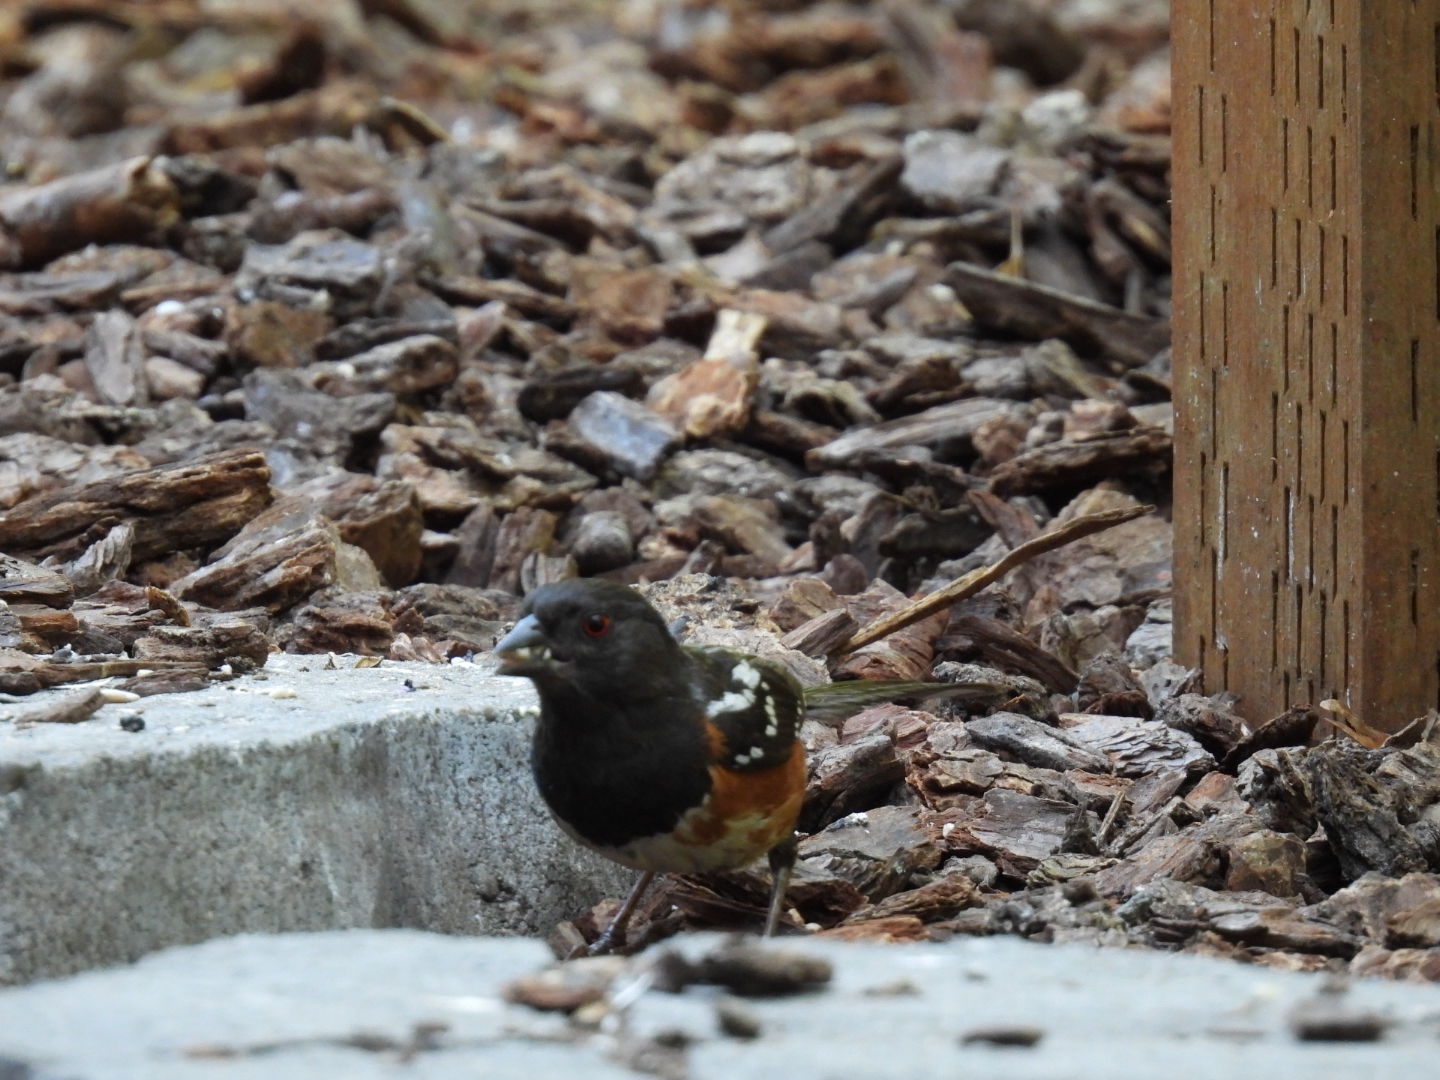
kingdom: Animalia
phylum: Chordata
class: Aves
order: Passeriformes
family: Passerellidae
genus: Pipilo
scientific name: Pipilo maculatus
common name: Spotted towhee
